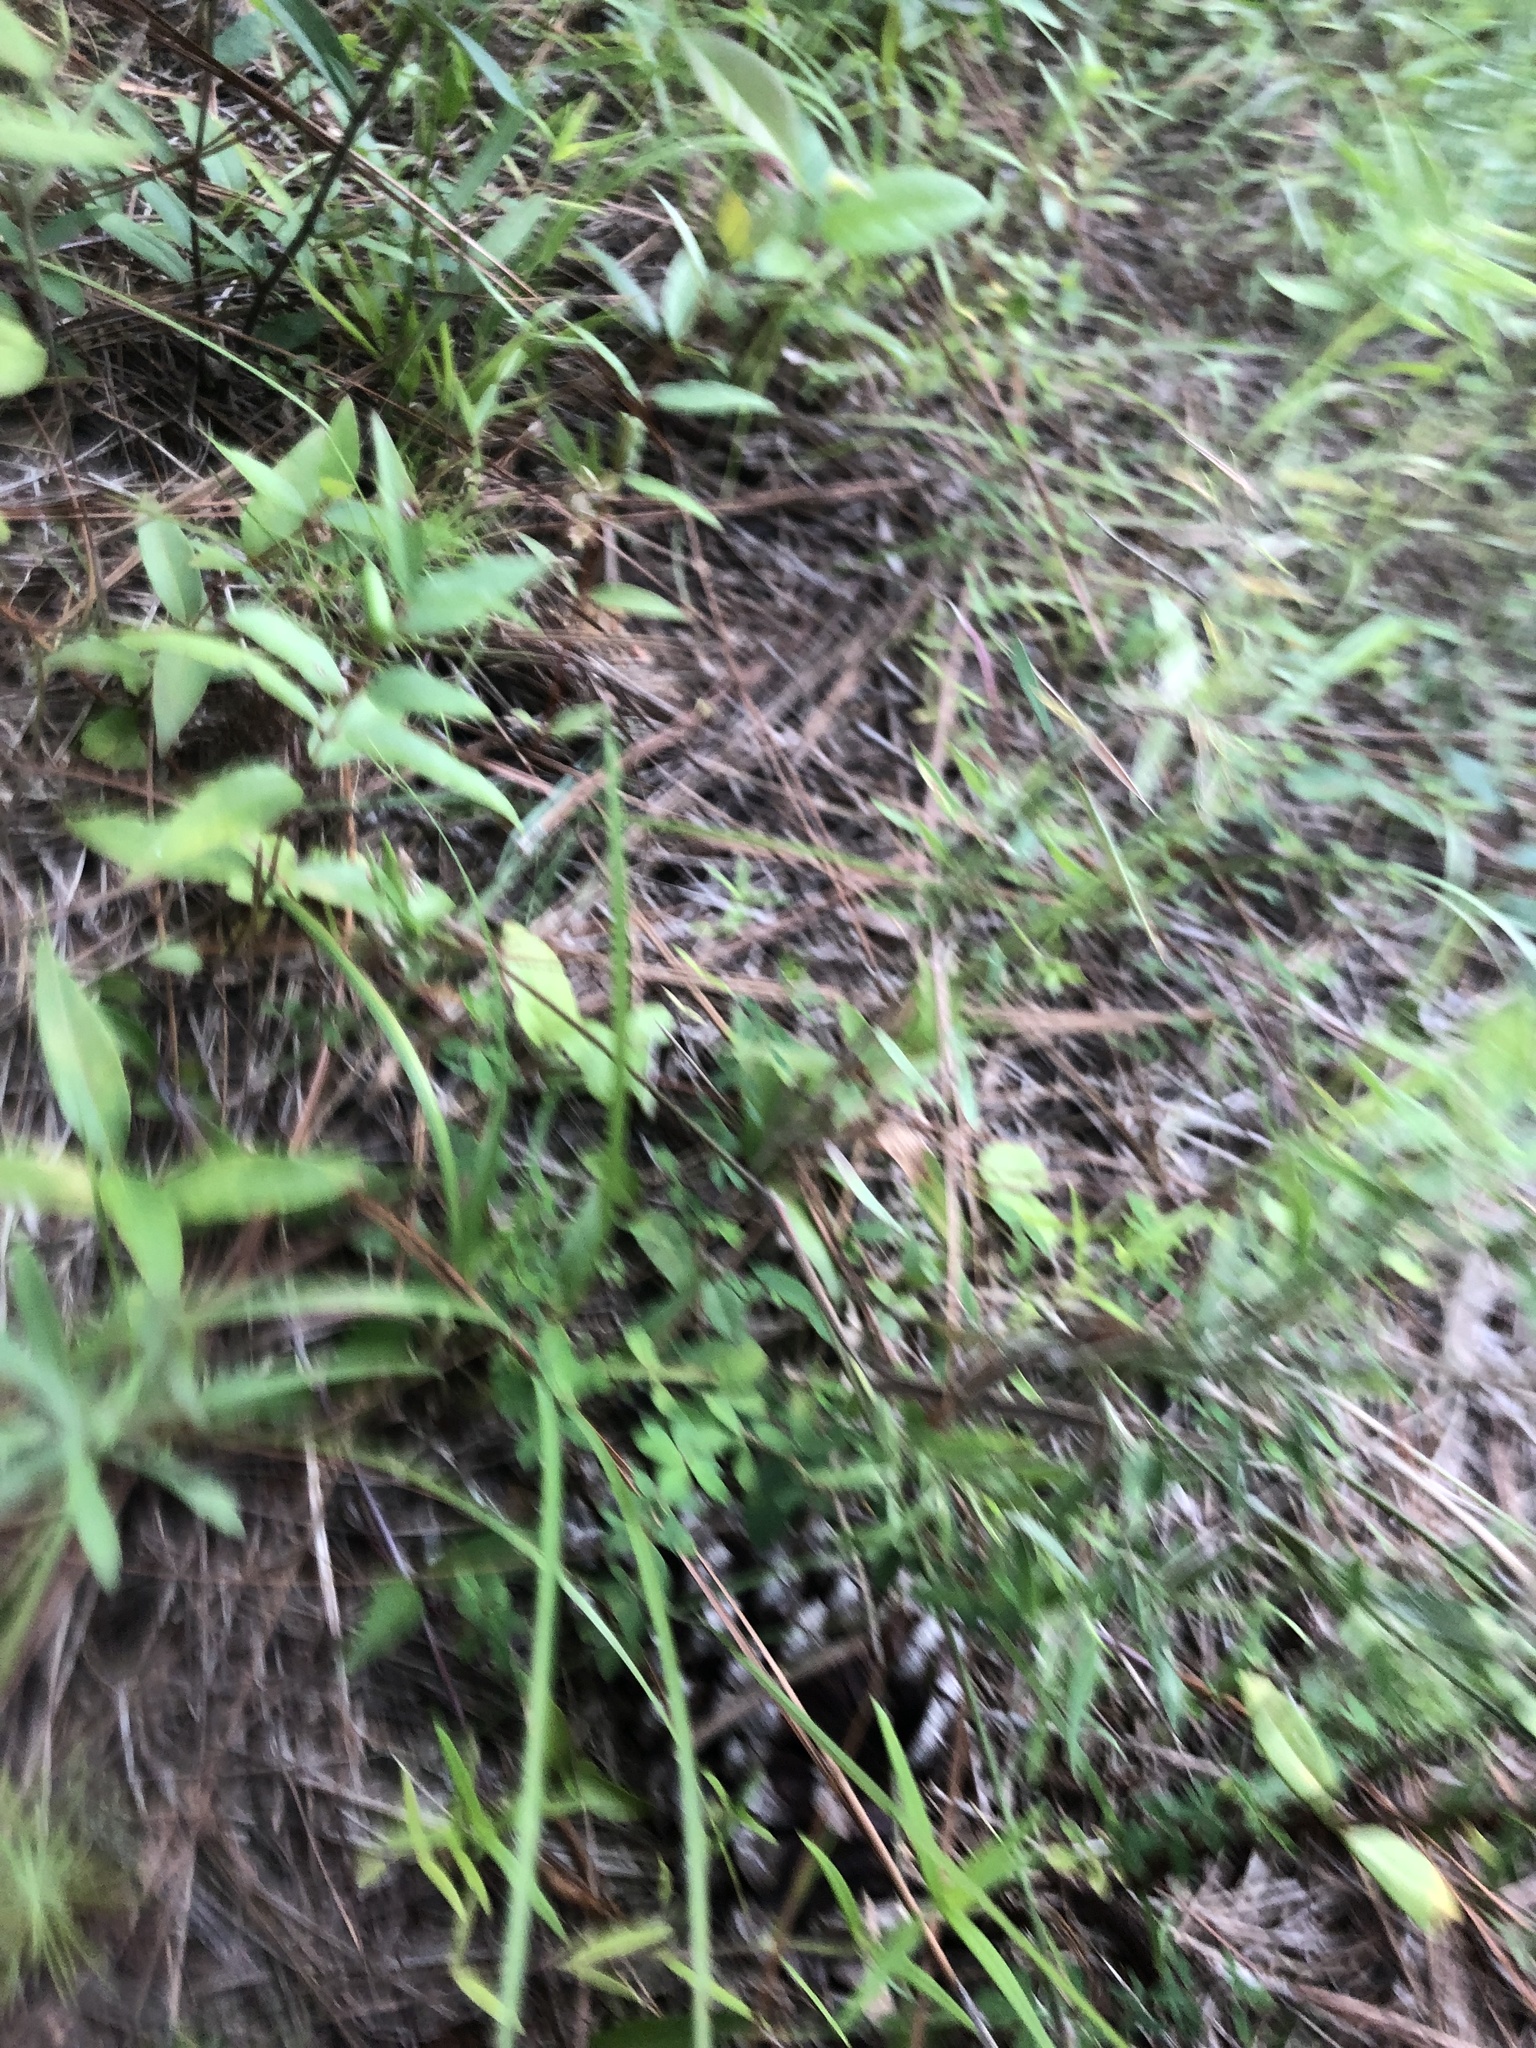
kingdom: Plantae
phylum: Tracheophyta
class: Magnoliopsida
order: Fabales
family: Fabaceae
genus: Lespedeza
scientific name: Lespedeza repens
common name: Creeping bush-clover
